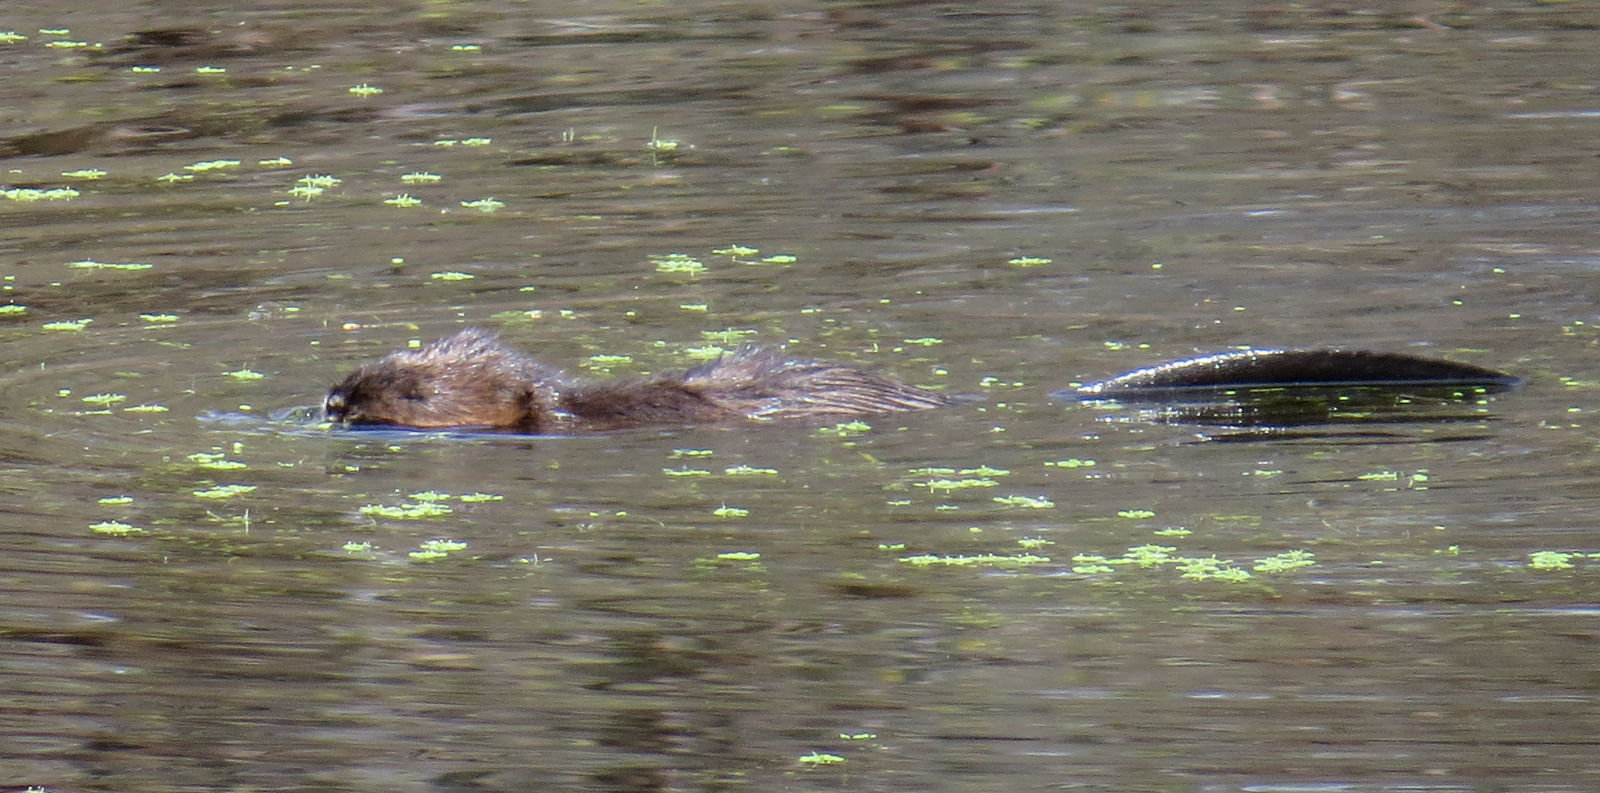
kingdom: Animalia
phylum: Chordata
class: Mammalia
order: Rodentia
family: Cricetidae
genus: Ondatra
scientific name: Ondatra zibethicus
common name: Muskrat
